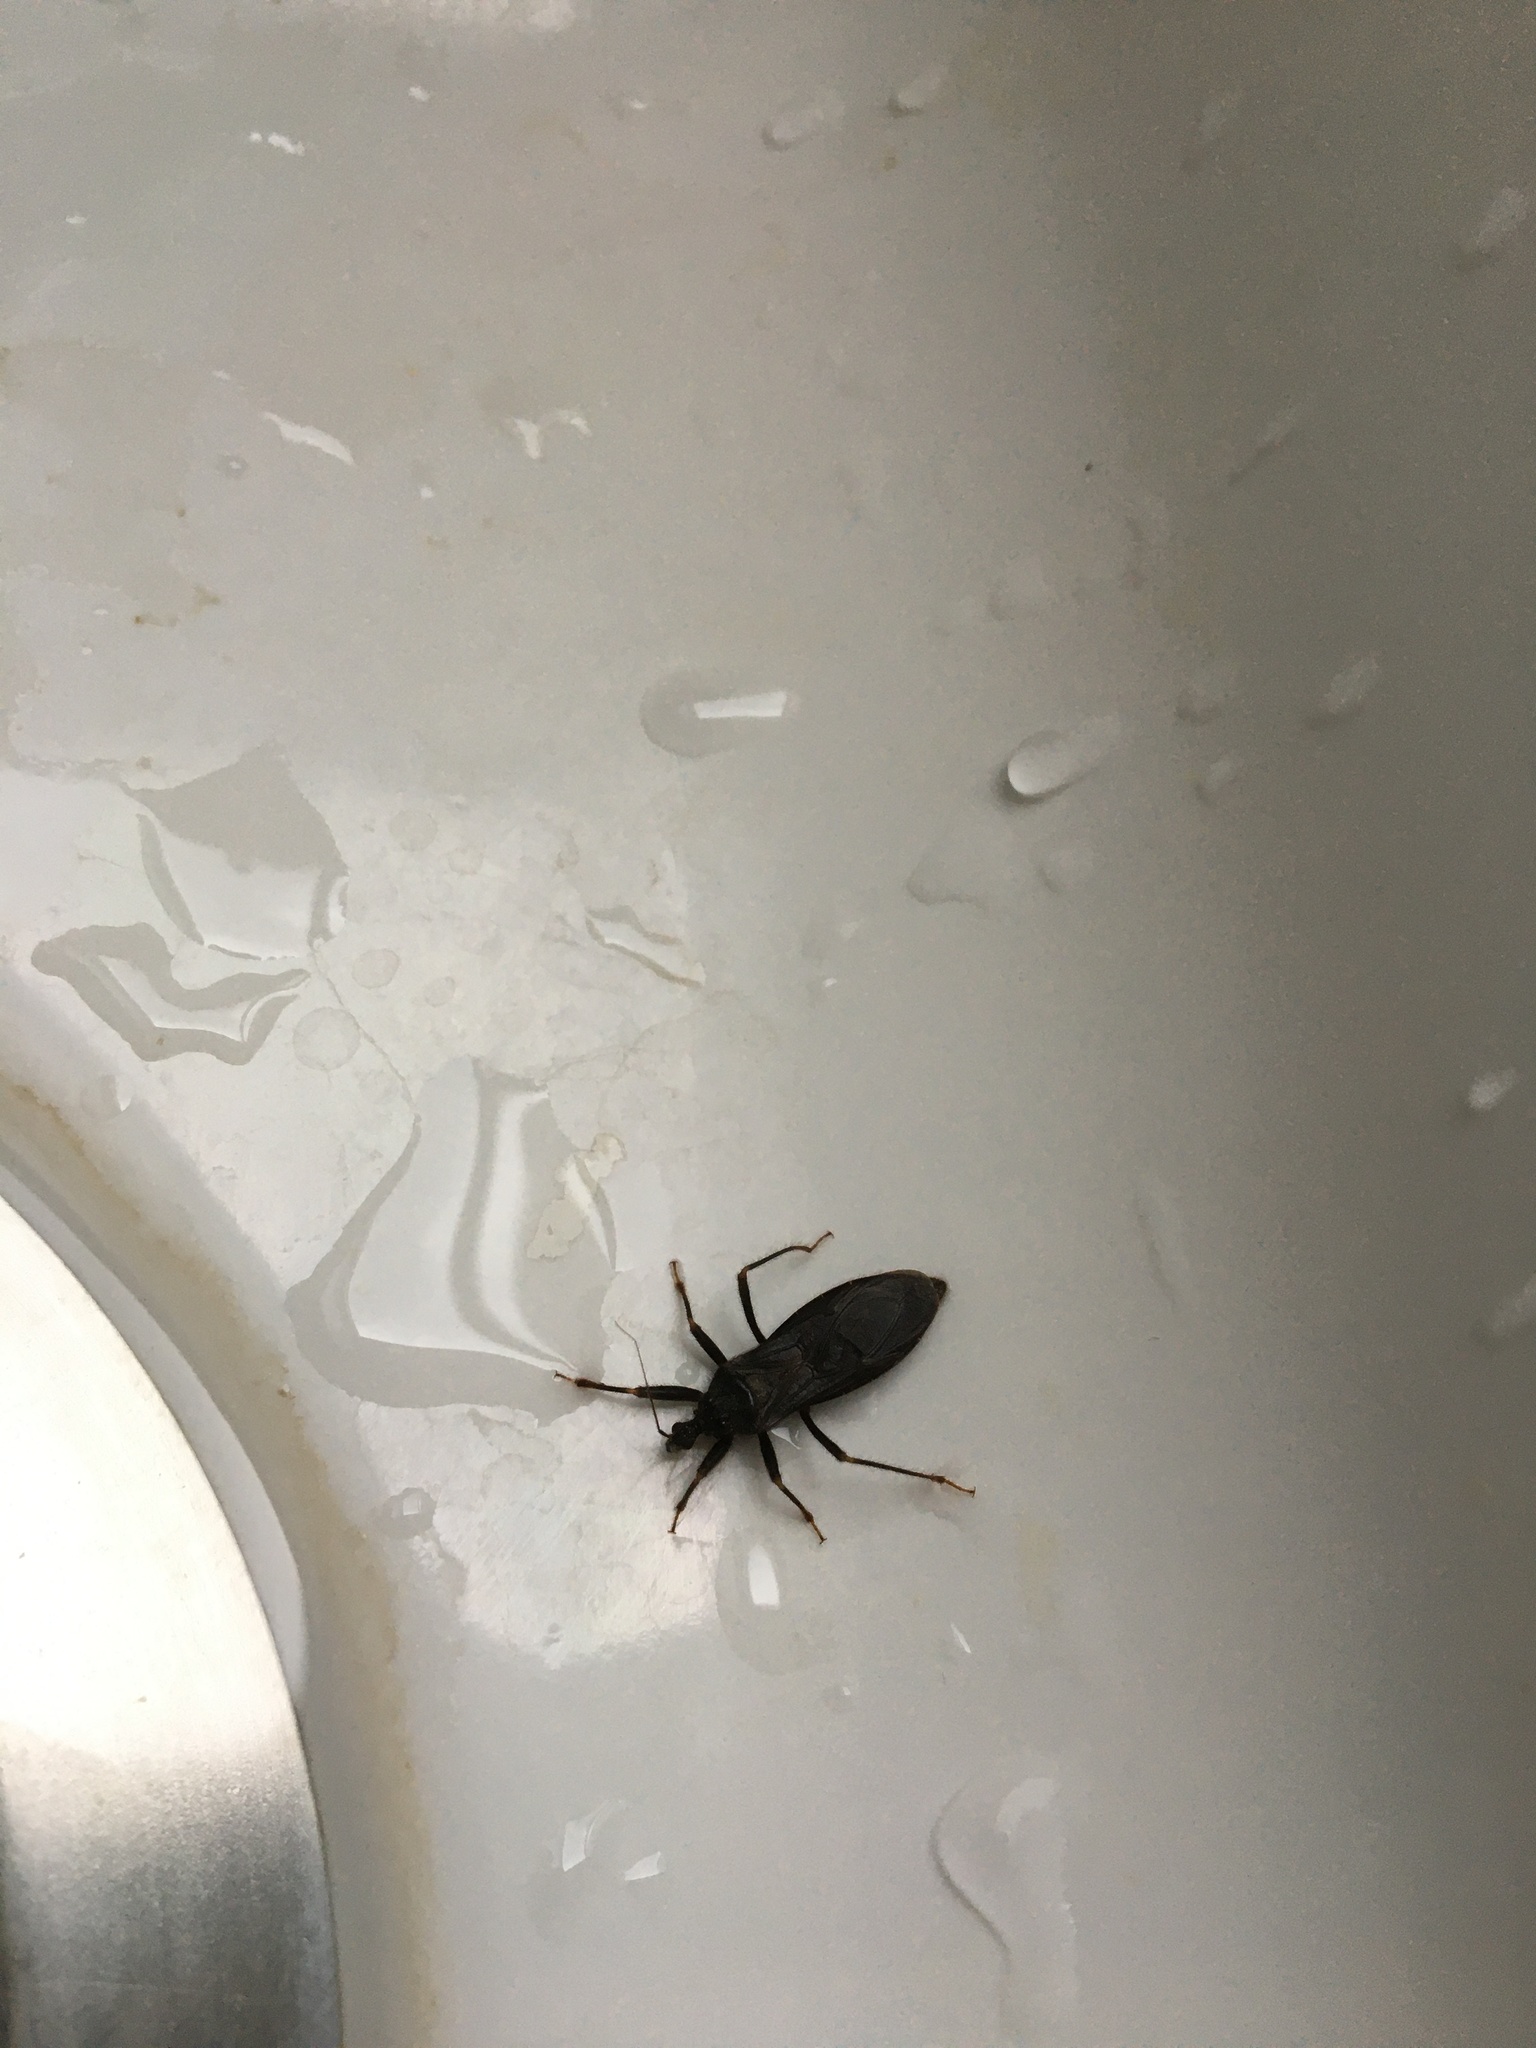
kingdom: Animalia
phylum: Arthropoda
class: Insecta
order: Hemiptera
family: Reduviidae
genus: Reduvius
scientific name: Reduvius personatus
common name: Masked hunter
